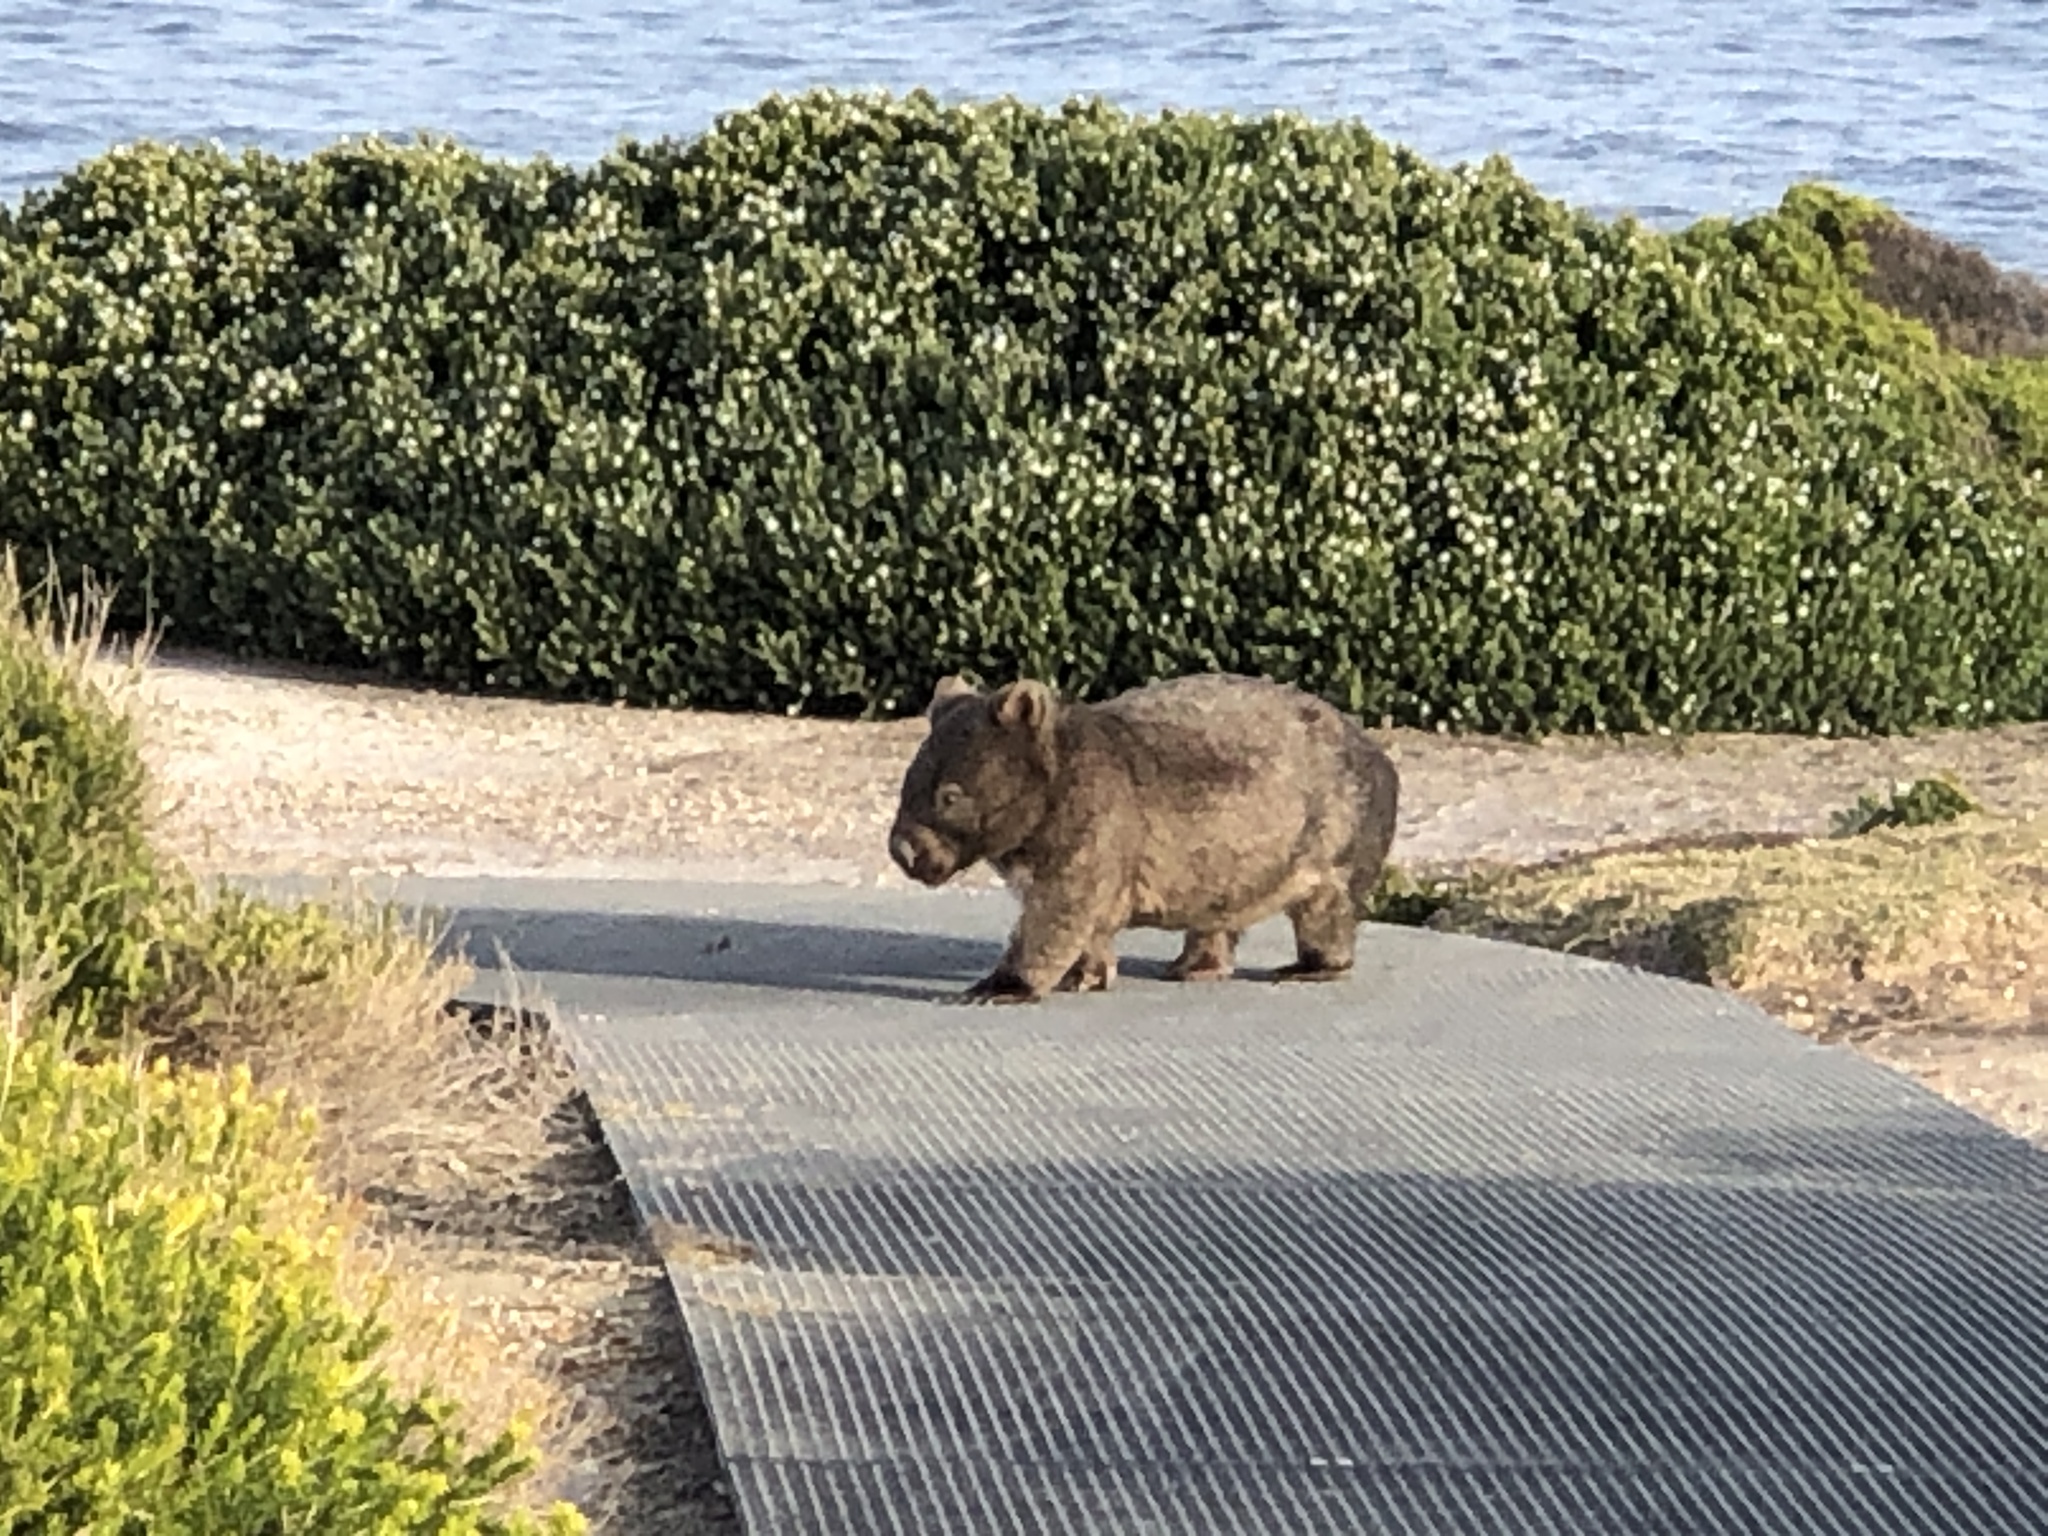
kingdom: Animalia
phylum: Chordata
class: Mammalia
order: Diprotodontia
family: Vombatidae
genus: Vombatus
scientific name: Vombatus ursinus
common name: Common wombat
